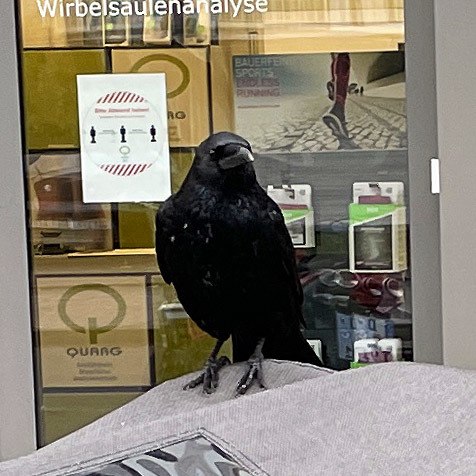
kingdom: Animalia
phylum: Chordata
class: Aves
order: Passeriformes
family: Corvidae
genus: Corvus
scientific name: Corvus corone
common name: Carrion crow
